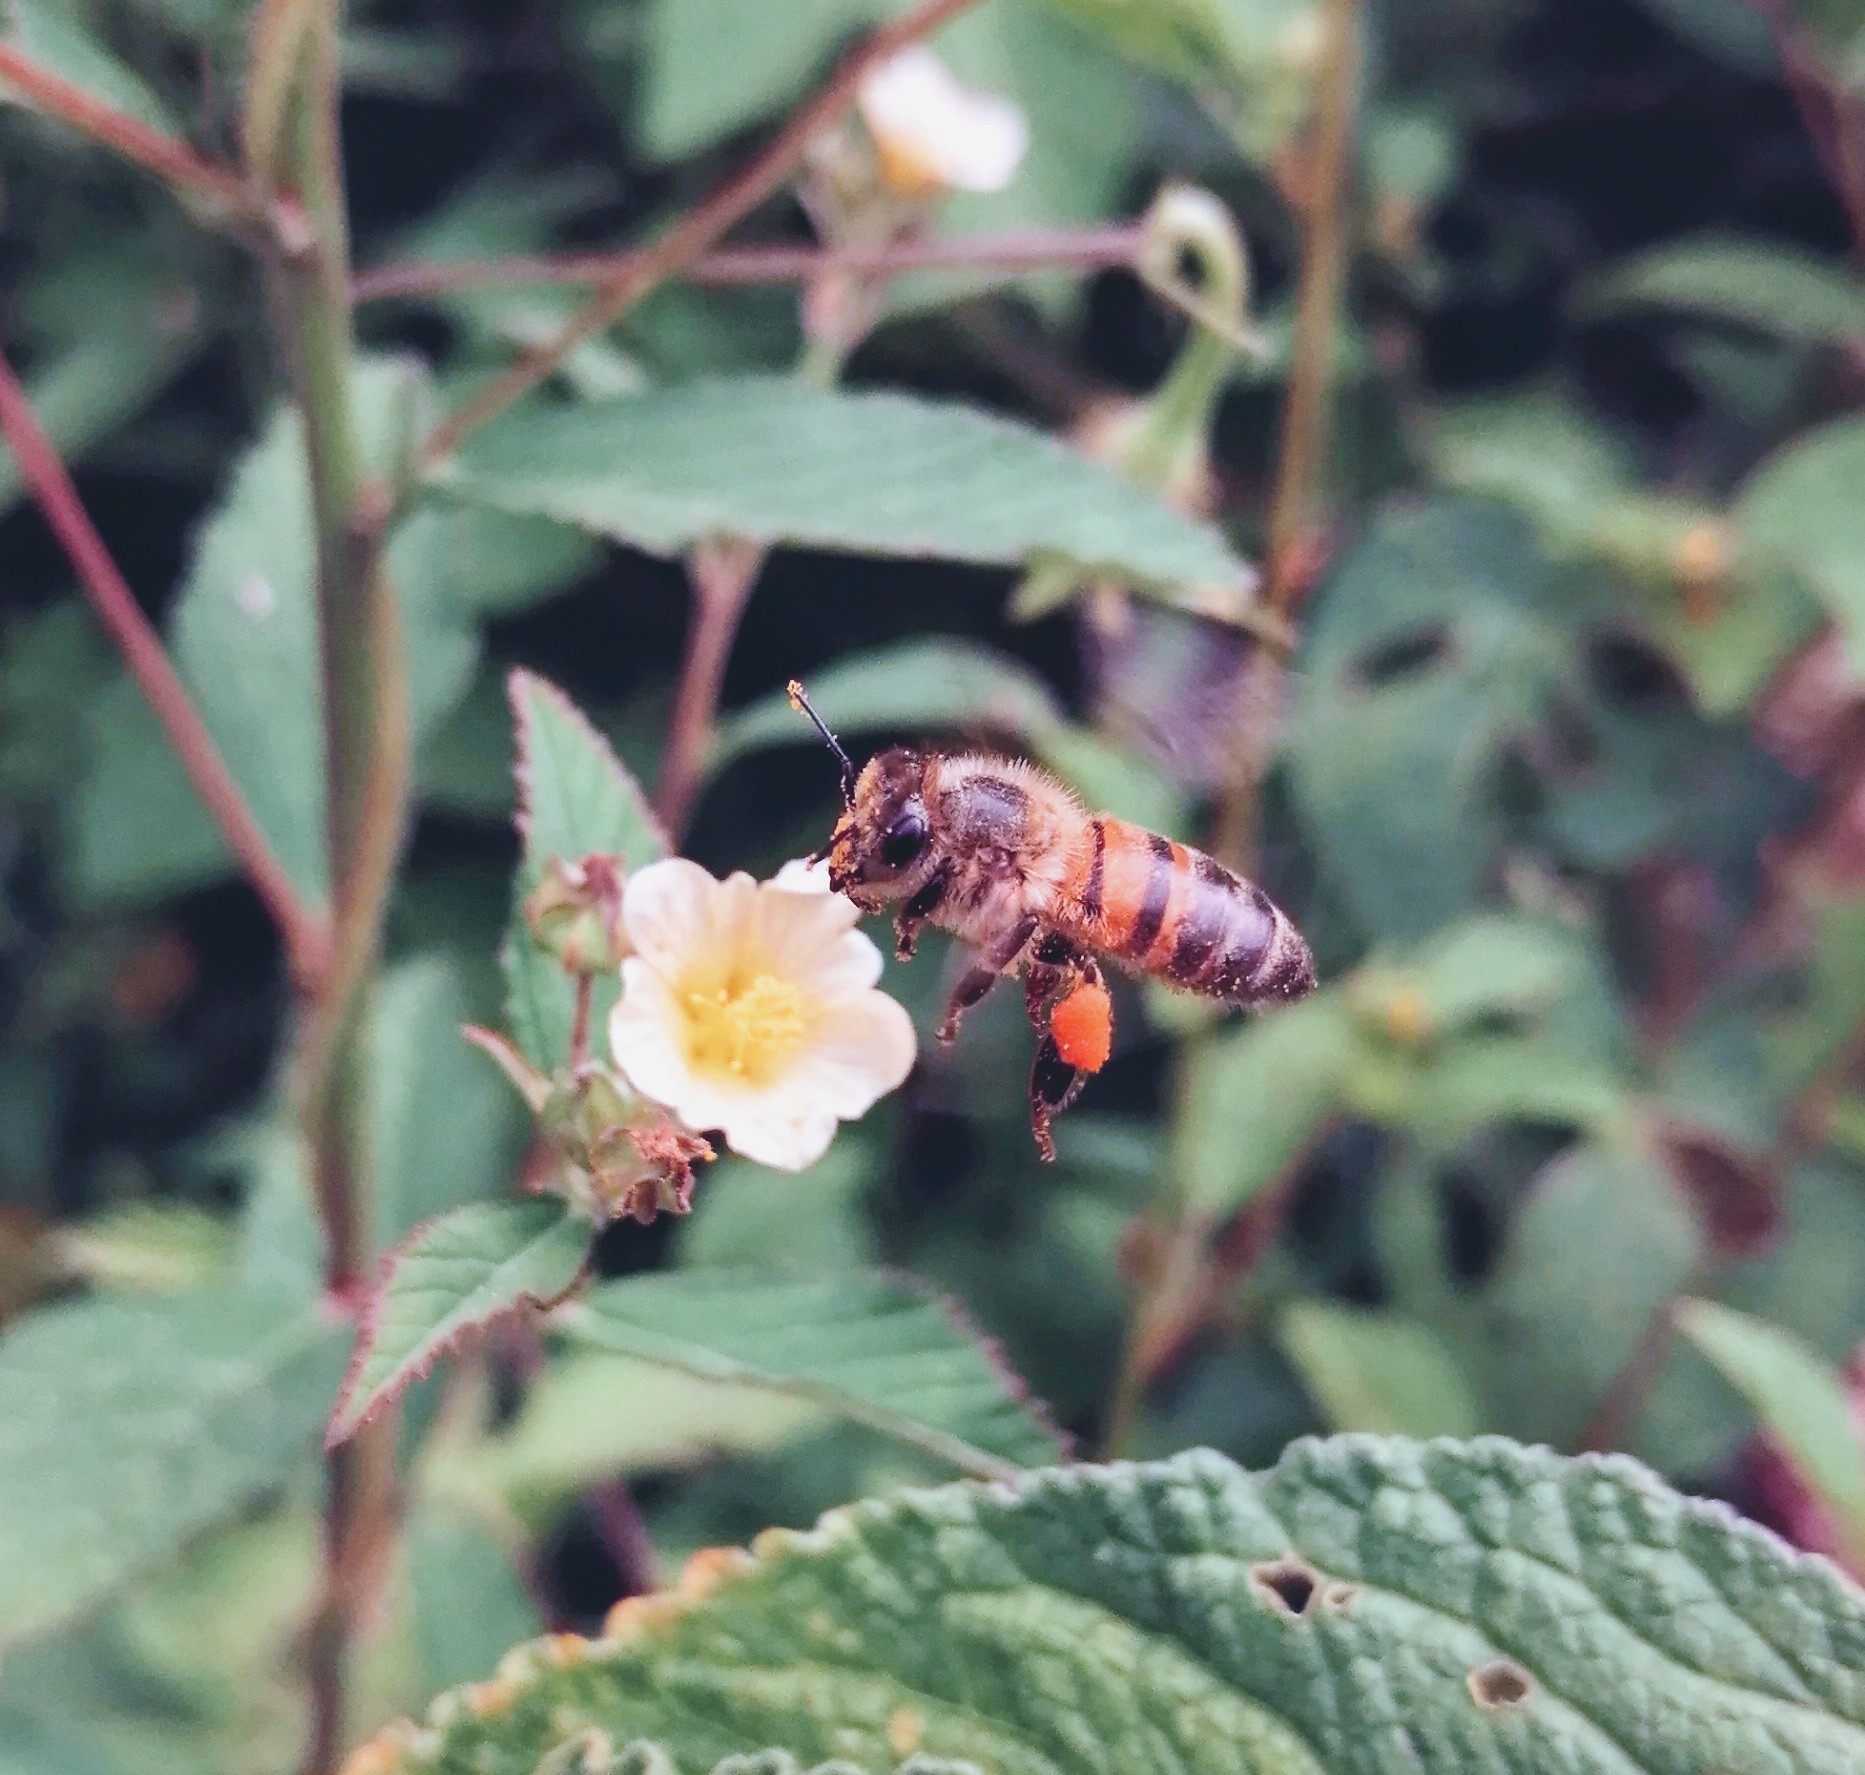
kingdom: Animalia
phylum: Arthropoda
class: Insecta
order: Hymenoptera
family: Apidae
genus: Apis
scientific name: Apis mellifera
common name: Honey bee
